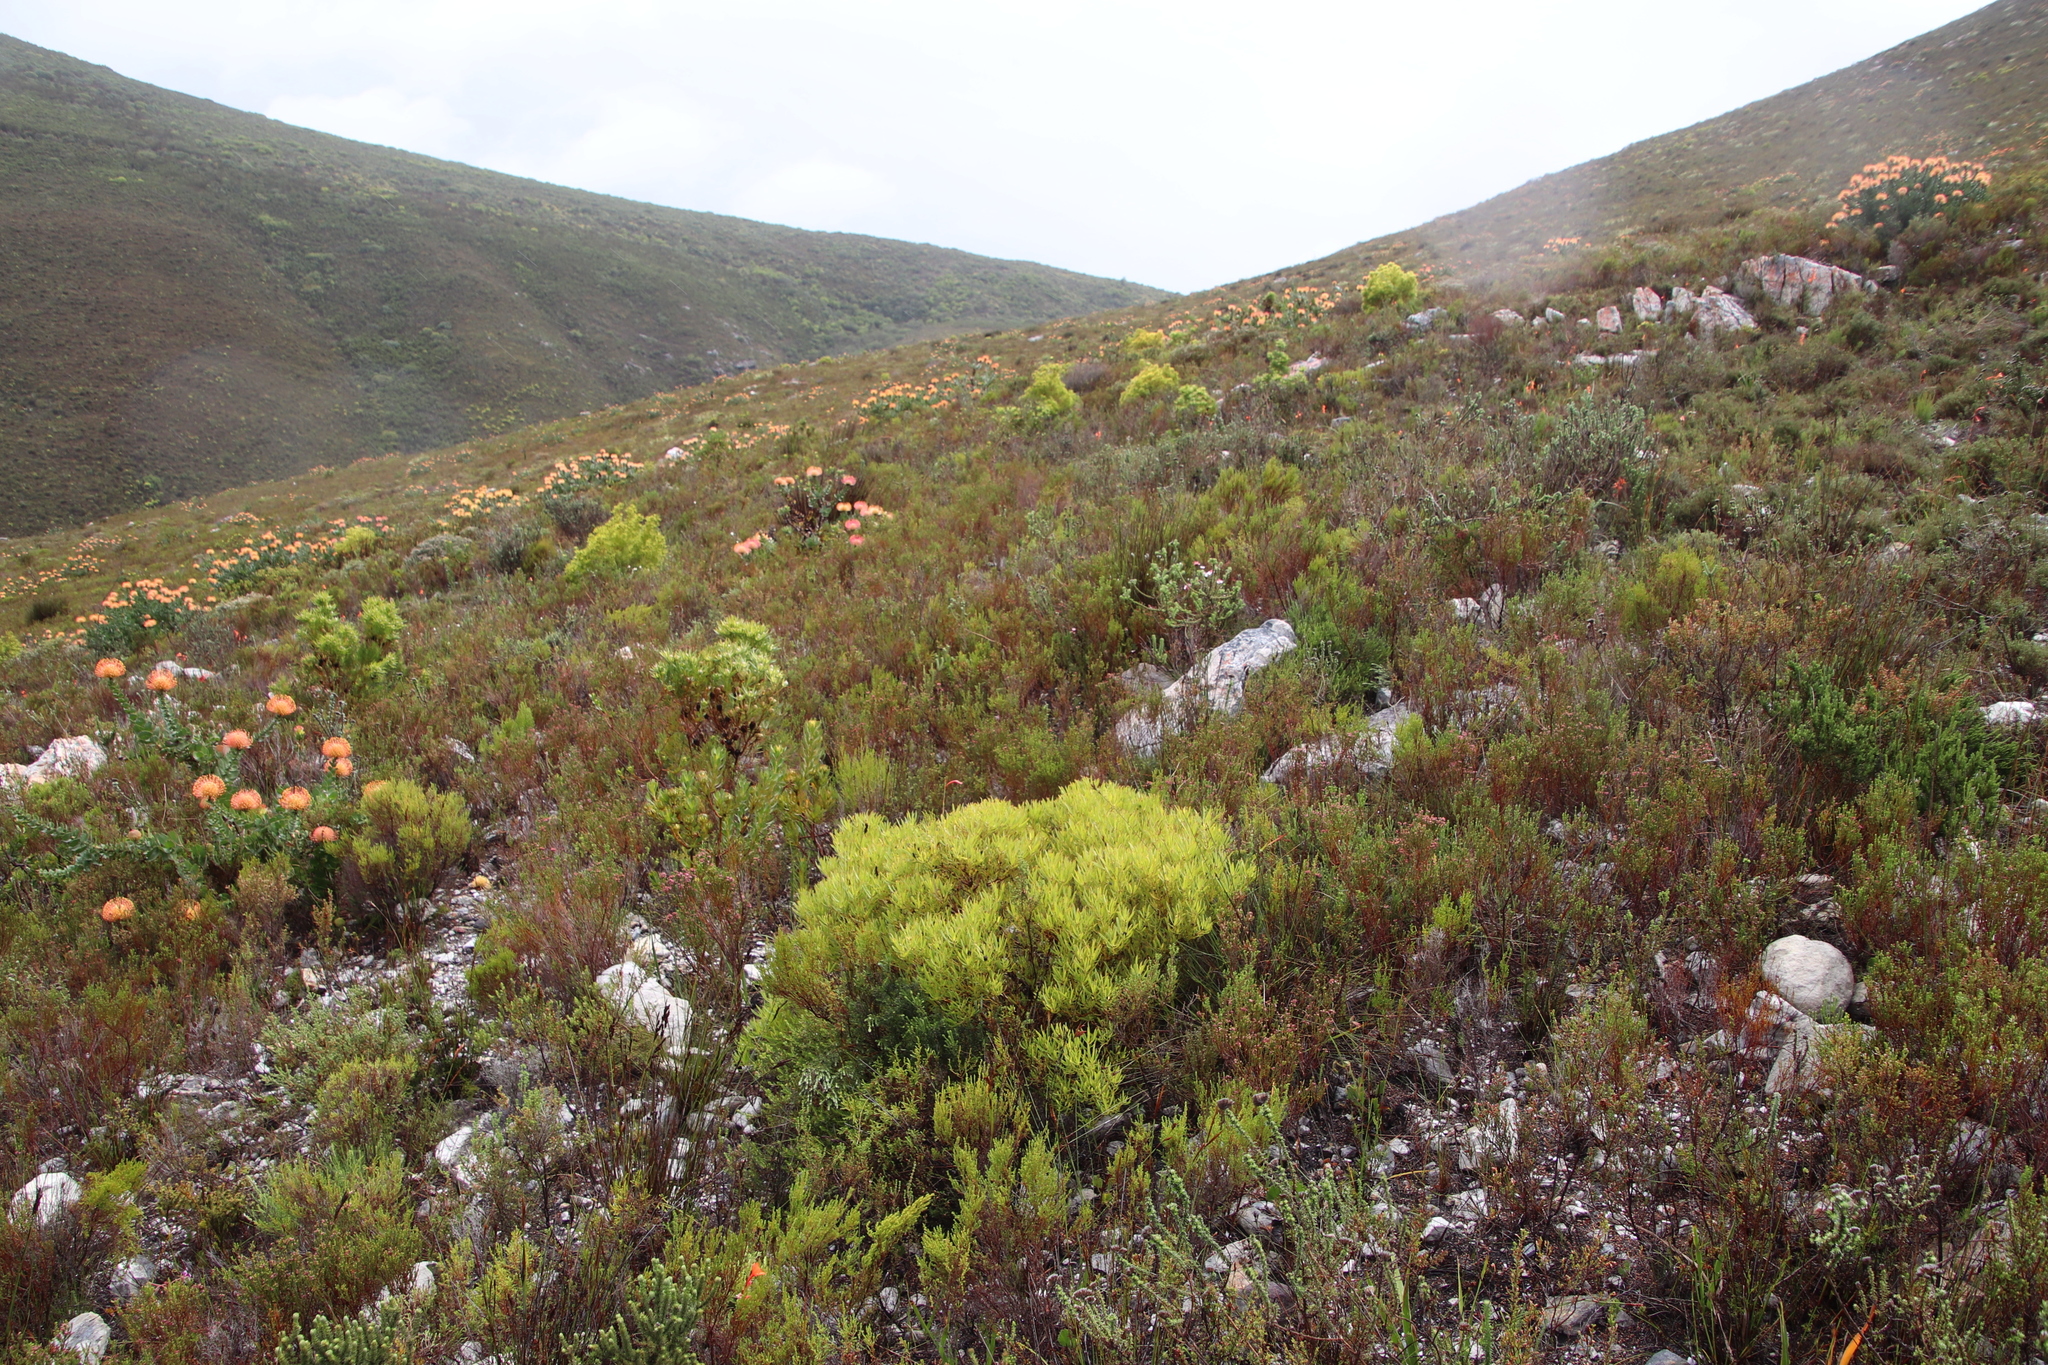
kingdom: Plantae
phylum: Tracheophyta
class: Magnoliopsida
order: Proteales
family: Proteaceae
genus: Leucadendron
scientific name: Leucadendron salignum
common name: Common sunshine conebush
